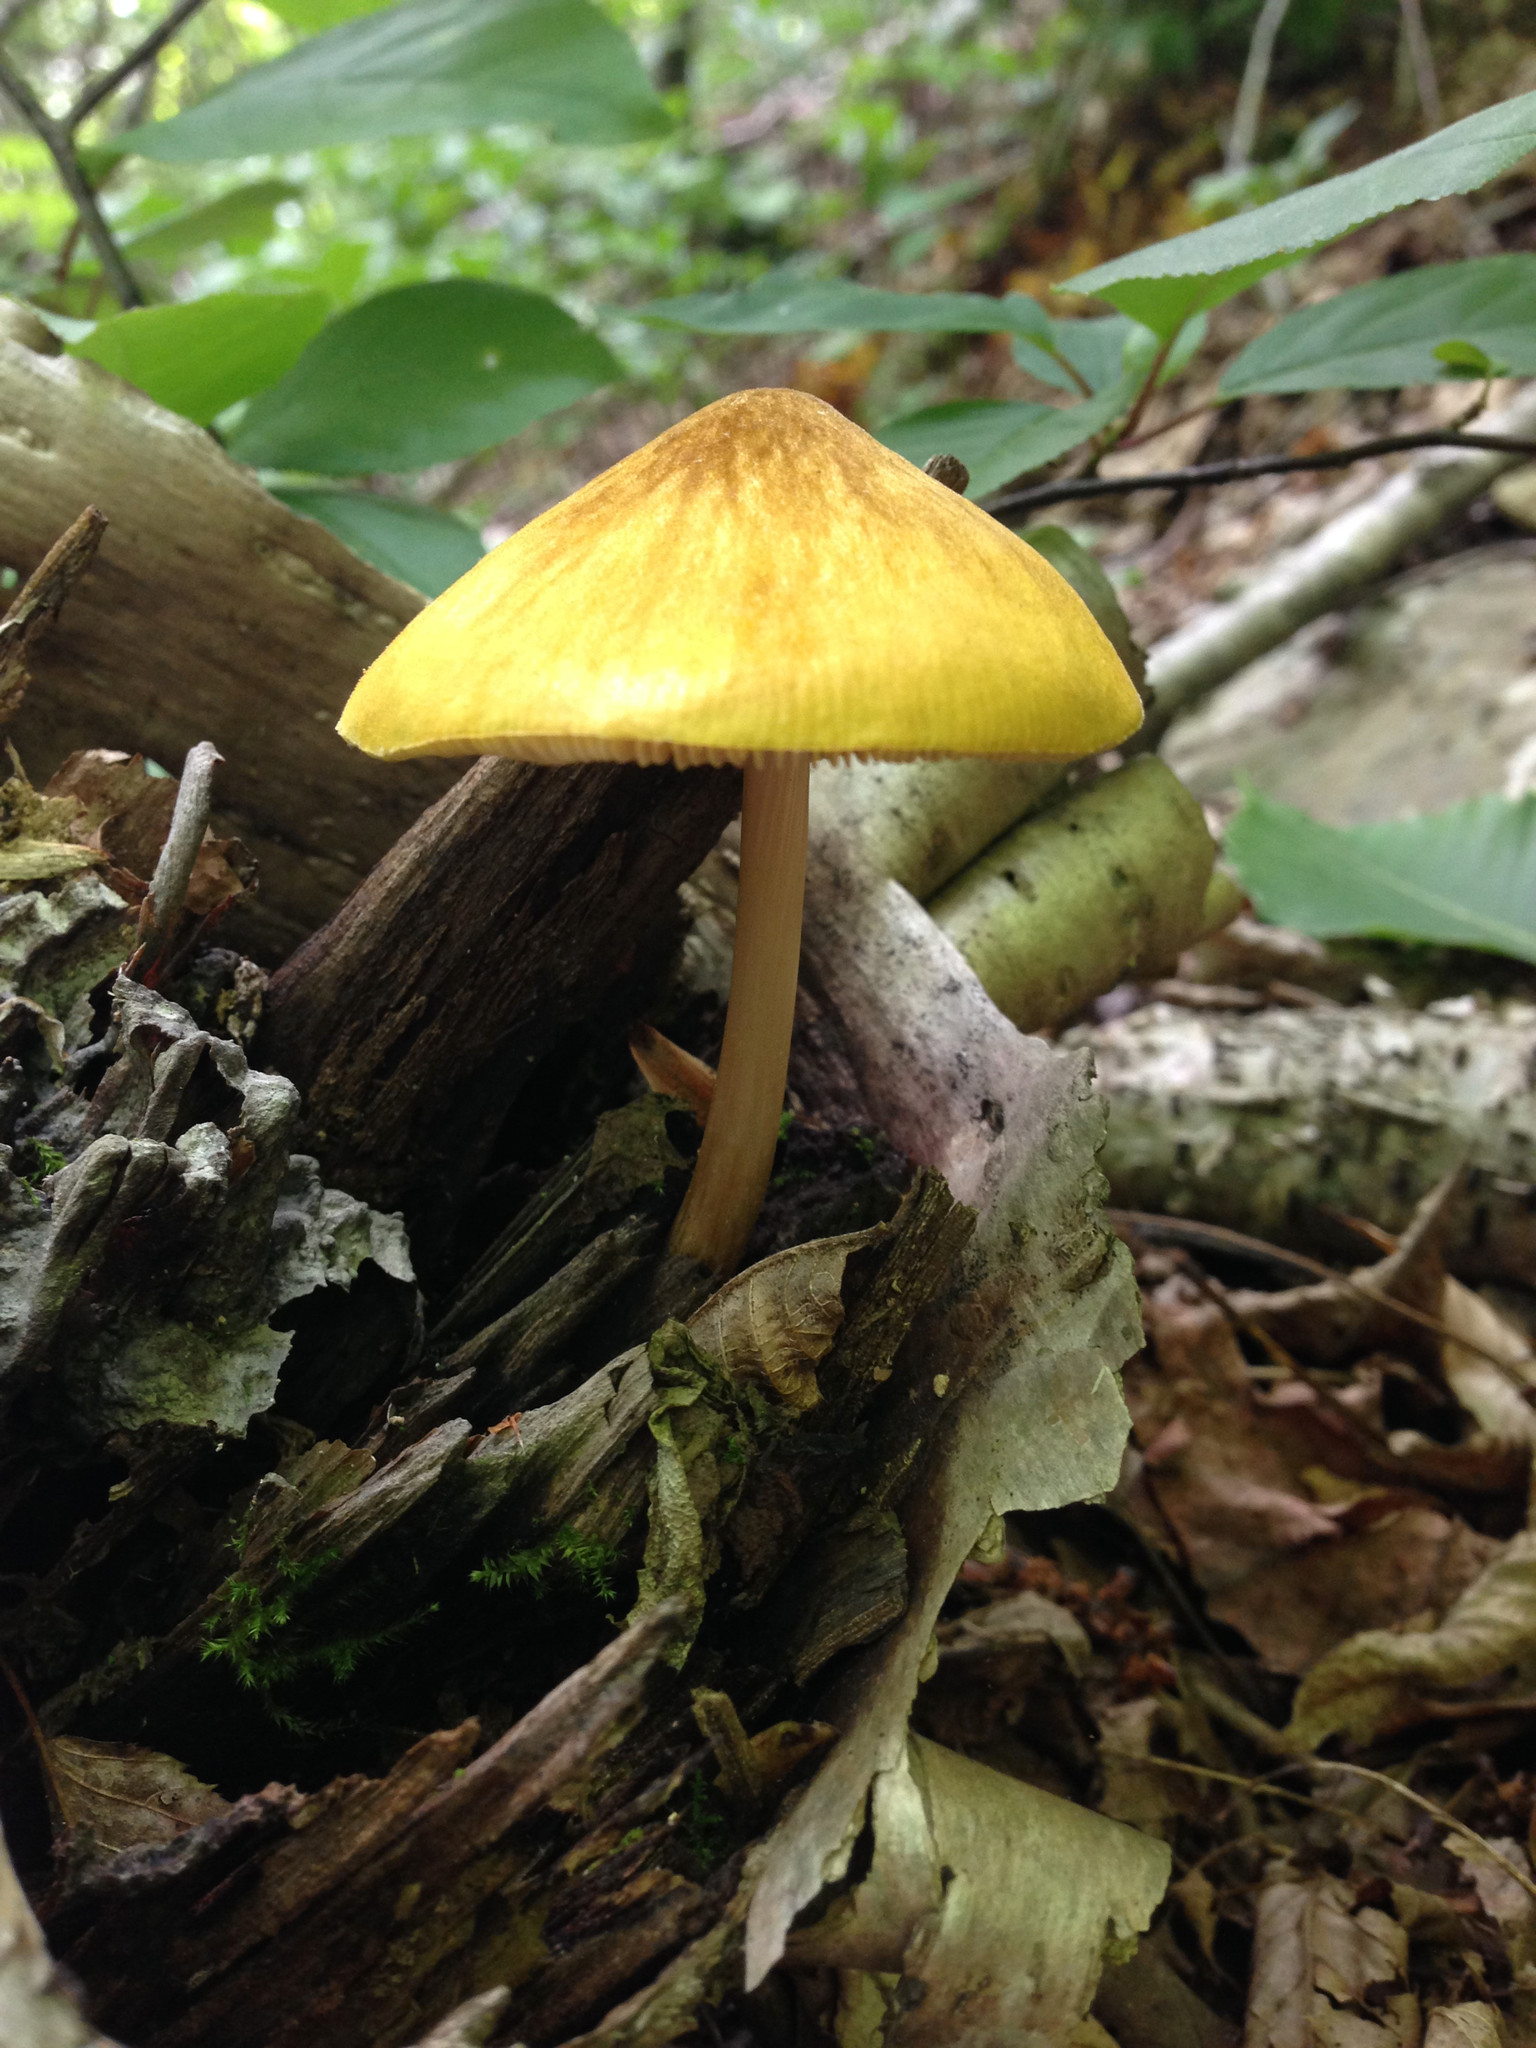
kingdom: Fungi
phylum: Basidiomycota
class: Agaricomycetes
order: Agaricales
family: Pluteaceae
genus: Pluteus
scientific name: Pluteus leoninus
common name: Lion shield
